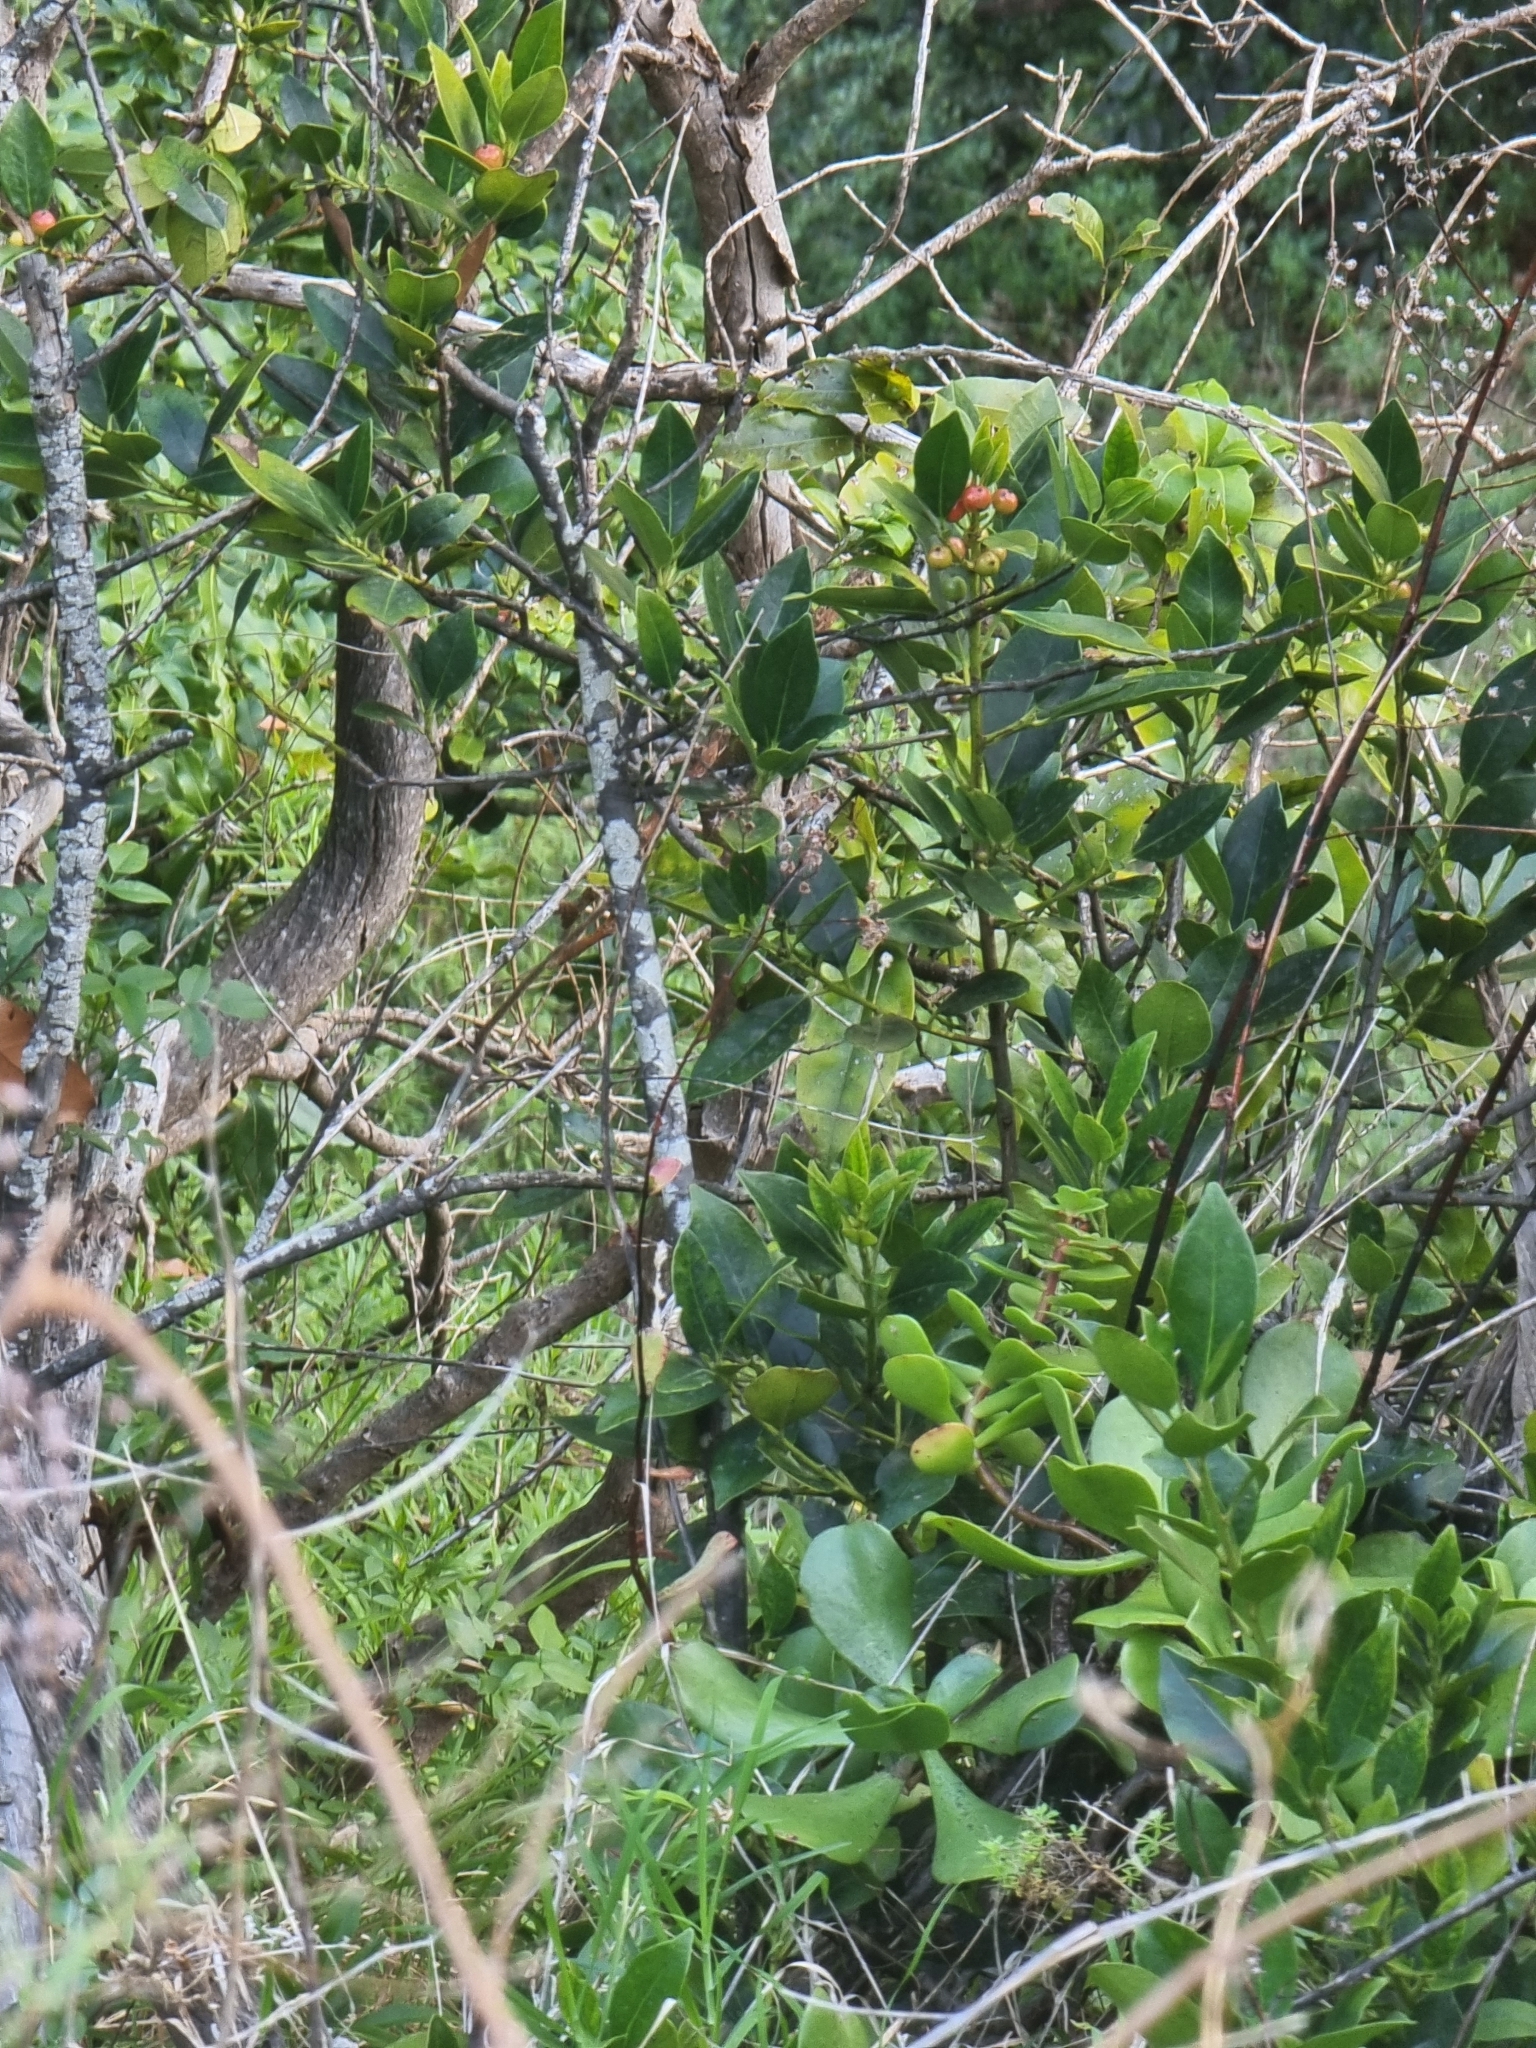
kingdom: Plantae
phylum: Tracheophyta
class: Magnoliopsida
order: Aquifoliales
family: Aquifoliaceae
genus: Ilex
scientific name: Ilex canariensis
